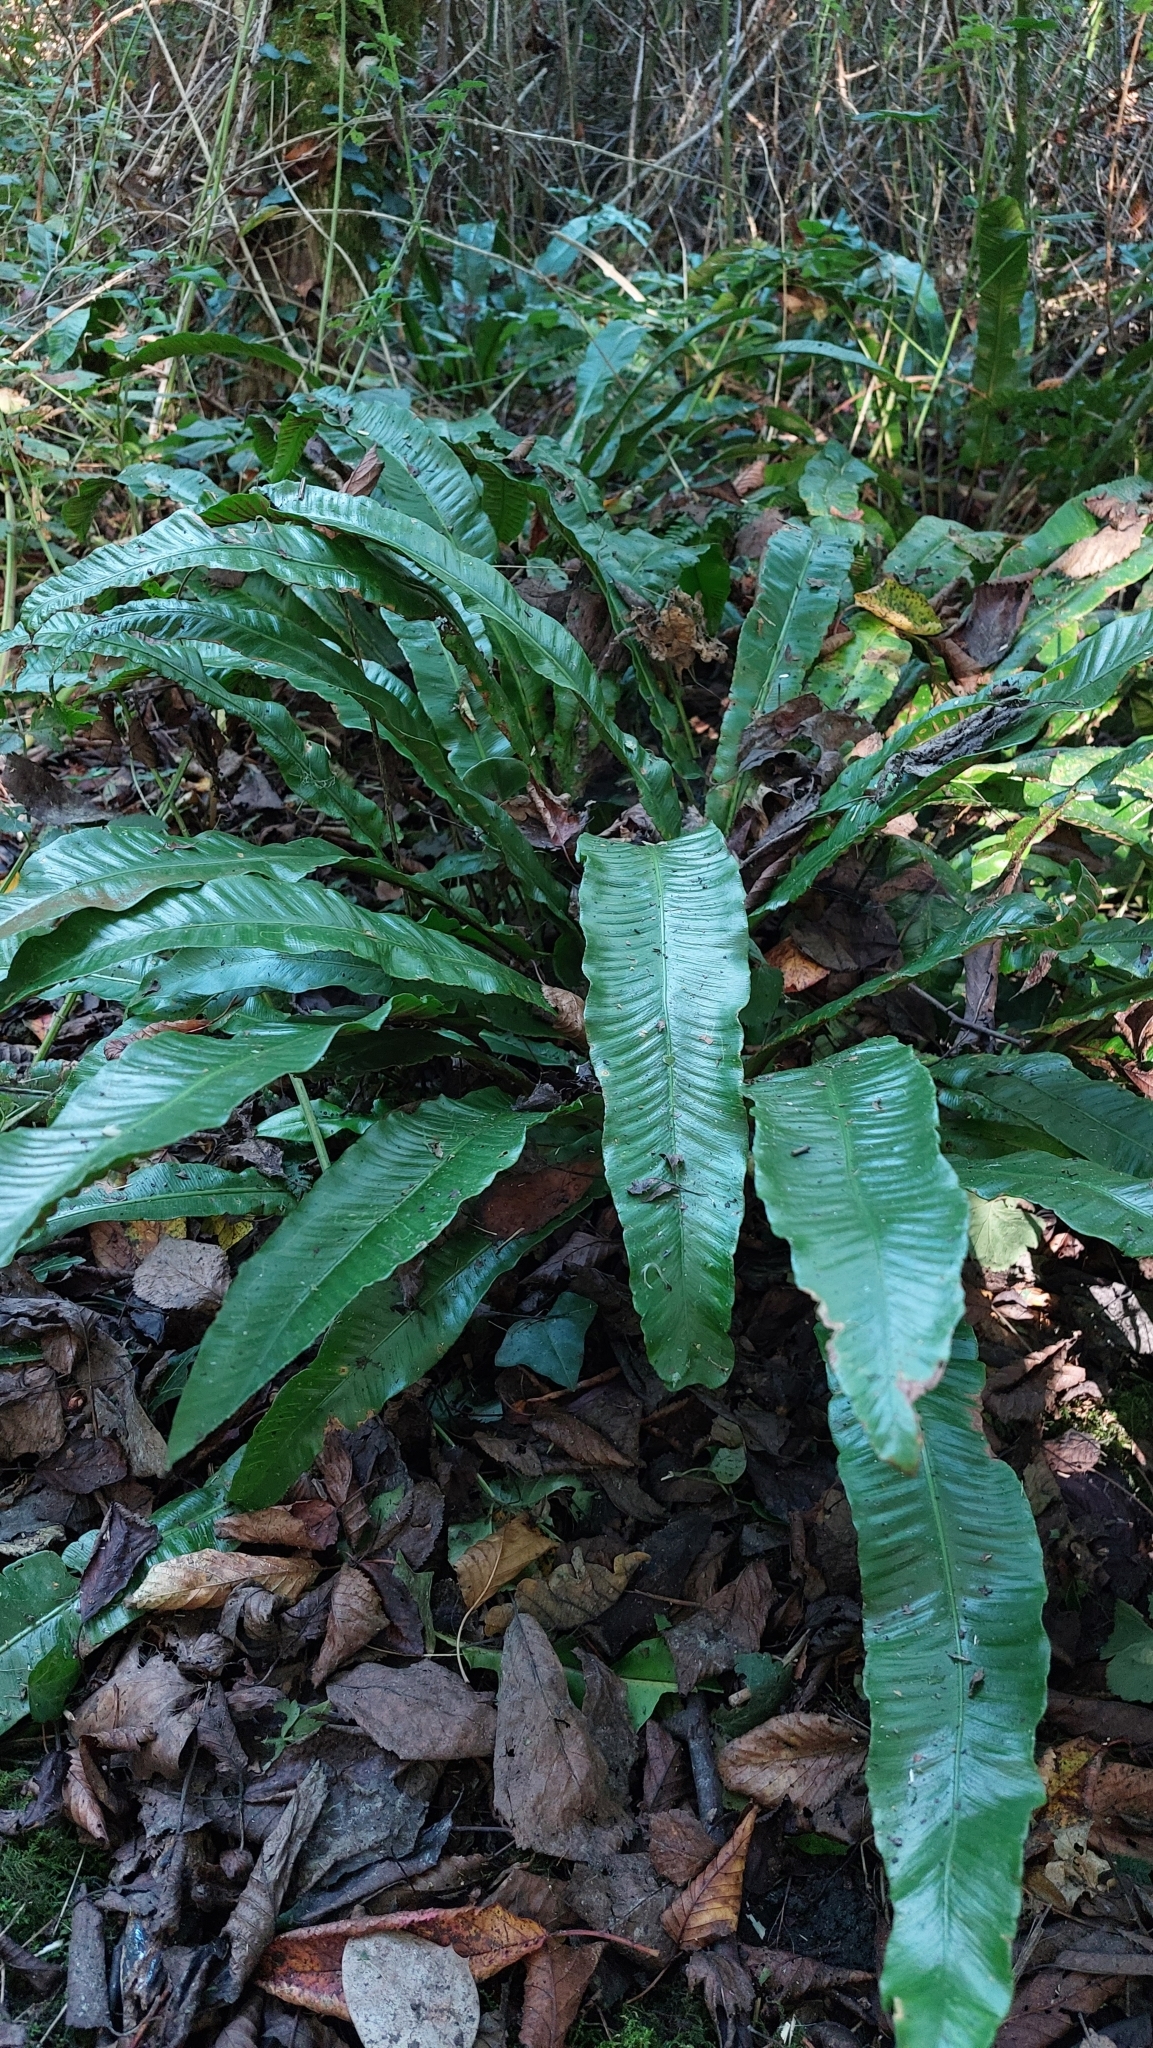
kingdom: Plantae
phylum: Tracheophyta
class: Polypodiopsida
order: Polypodiales
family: Aspleniaceae
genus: Asplenium
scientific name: Asplenium scolopendrium
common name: Hart's-tongue fern
